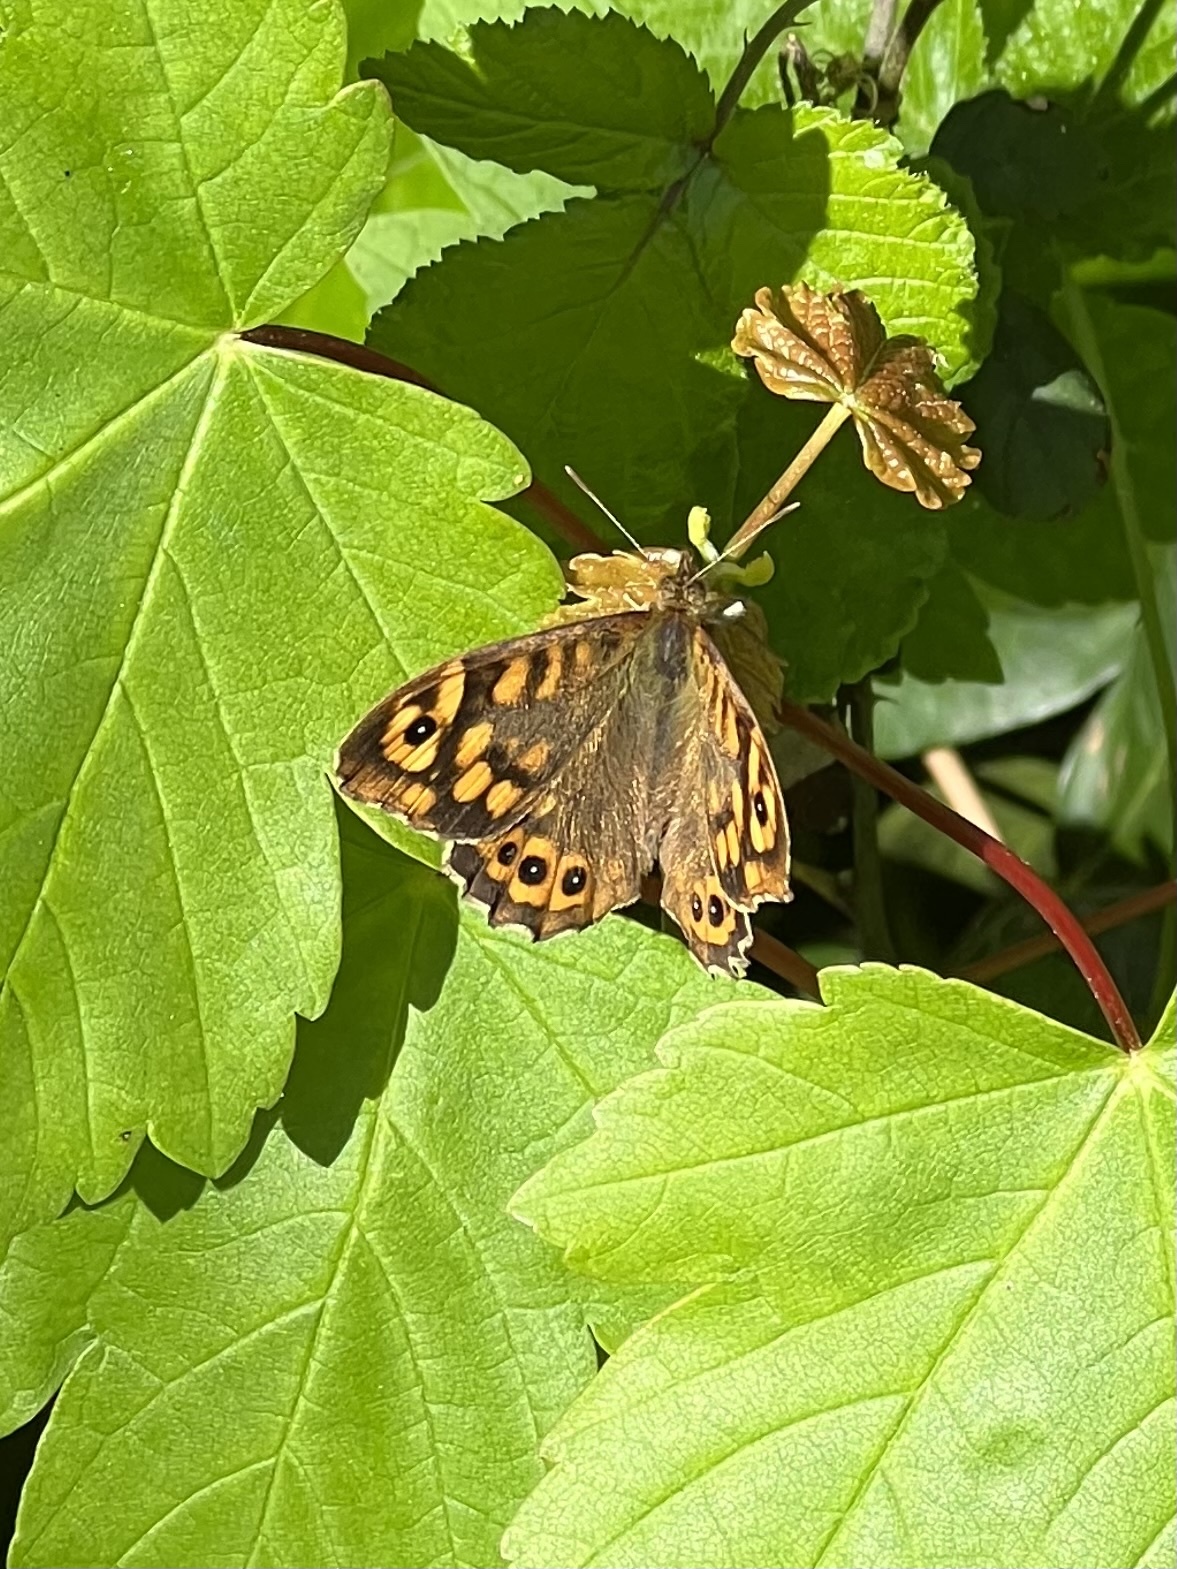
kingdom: Animalia
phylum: Arthropoda
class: Insecta
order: Lepidoptera
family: Nymphalidae
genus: Pararge
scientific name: Pararge aegeria
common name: Speckled wood
